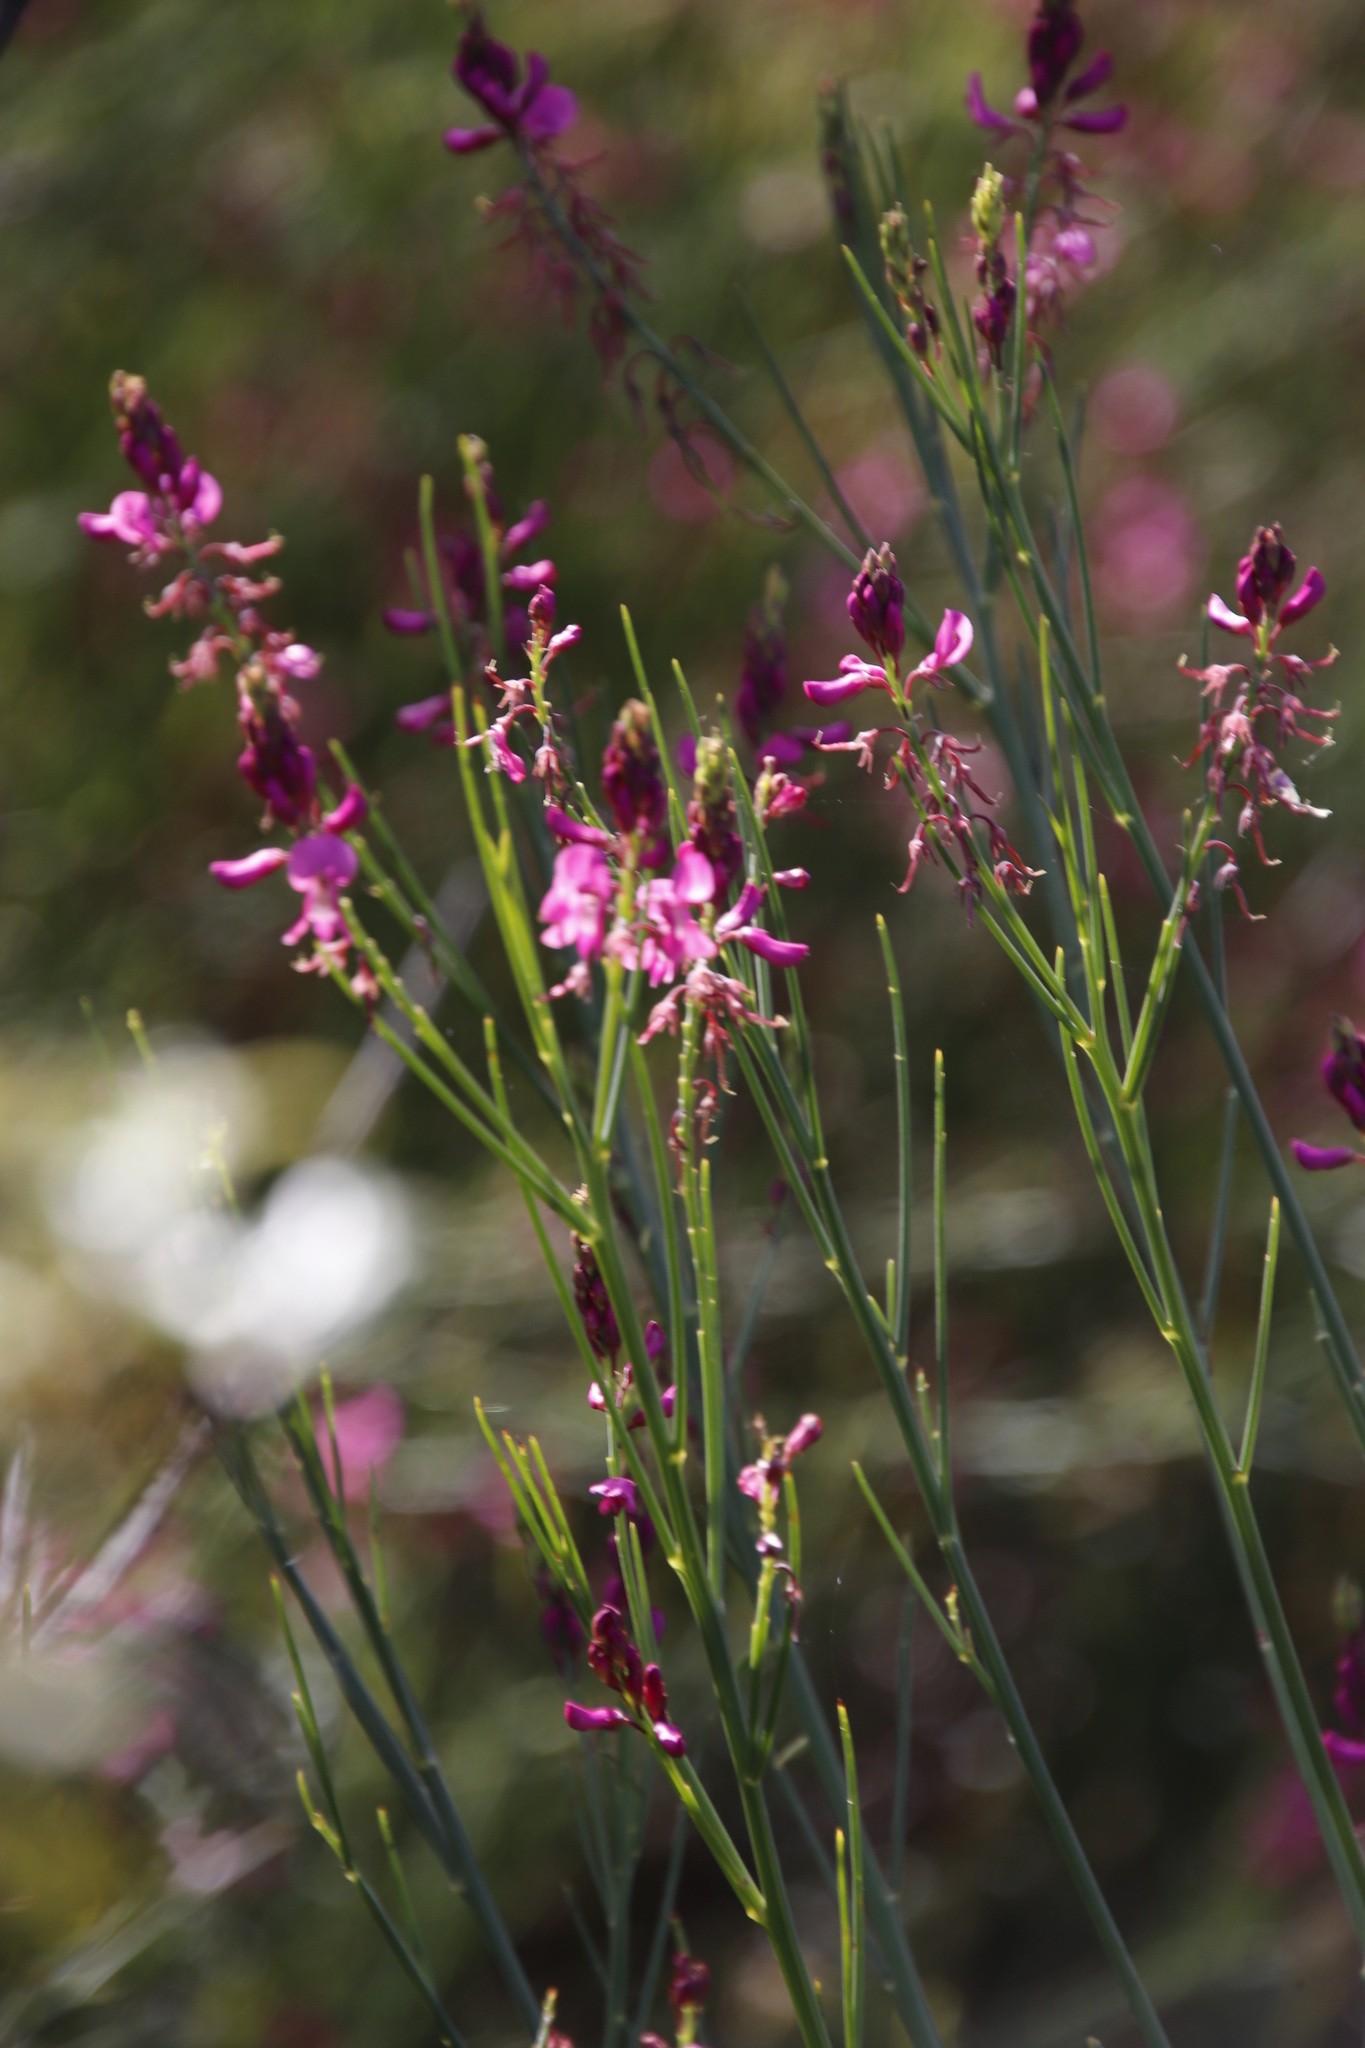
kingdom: Plantae
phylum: Tracheophyta
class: Magnoliopsida
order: Fabales
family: Fabaceae
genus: Indigofera
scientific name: Indigofera filifolia
